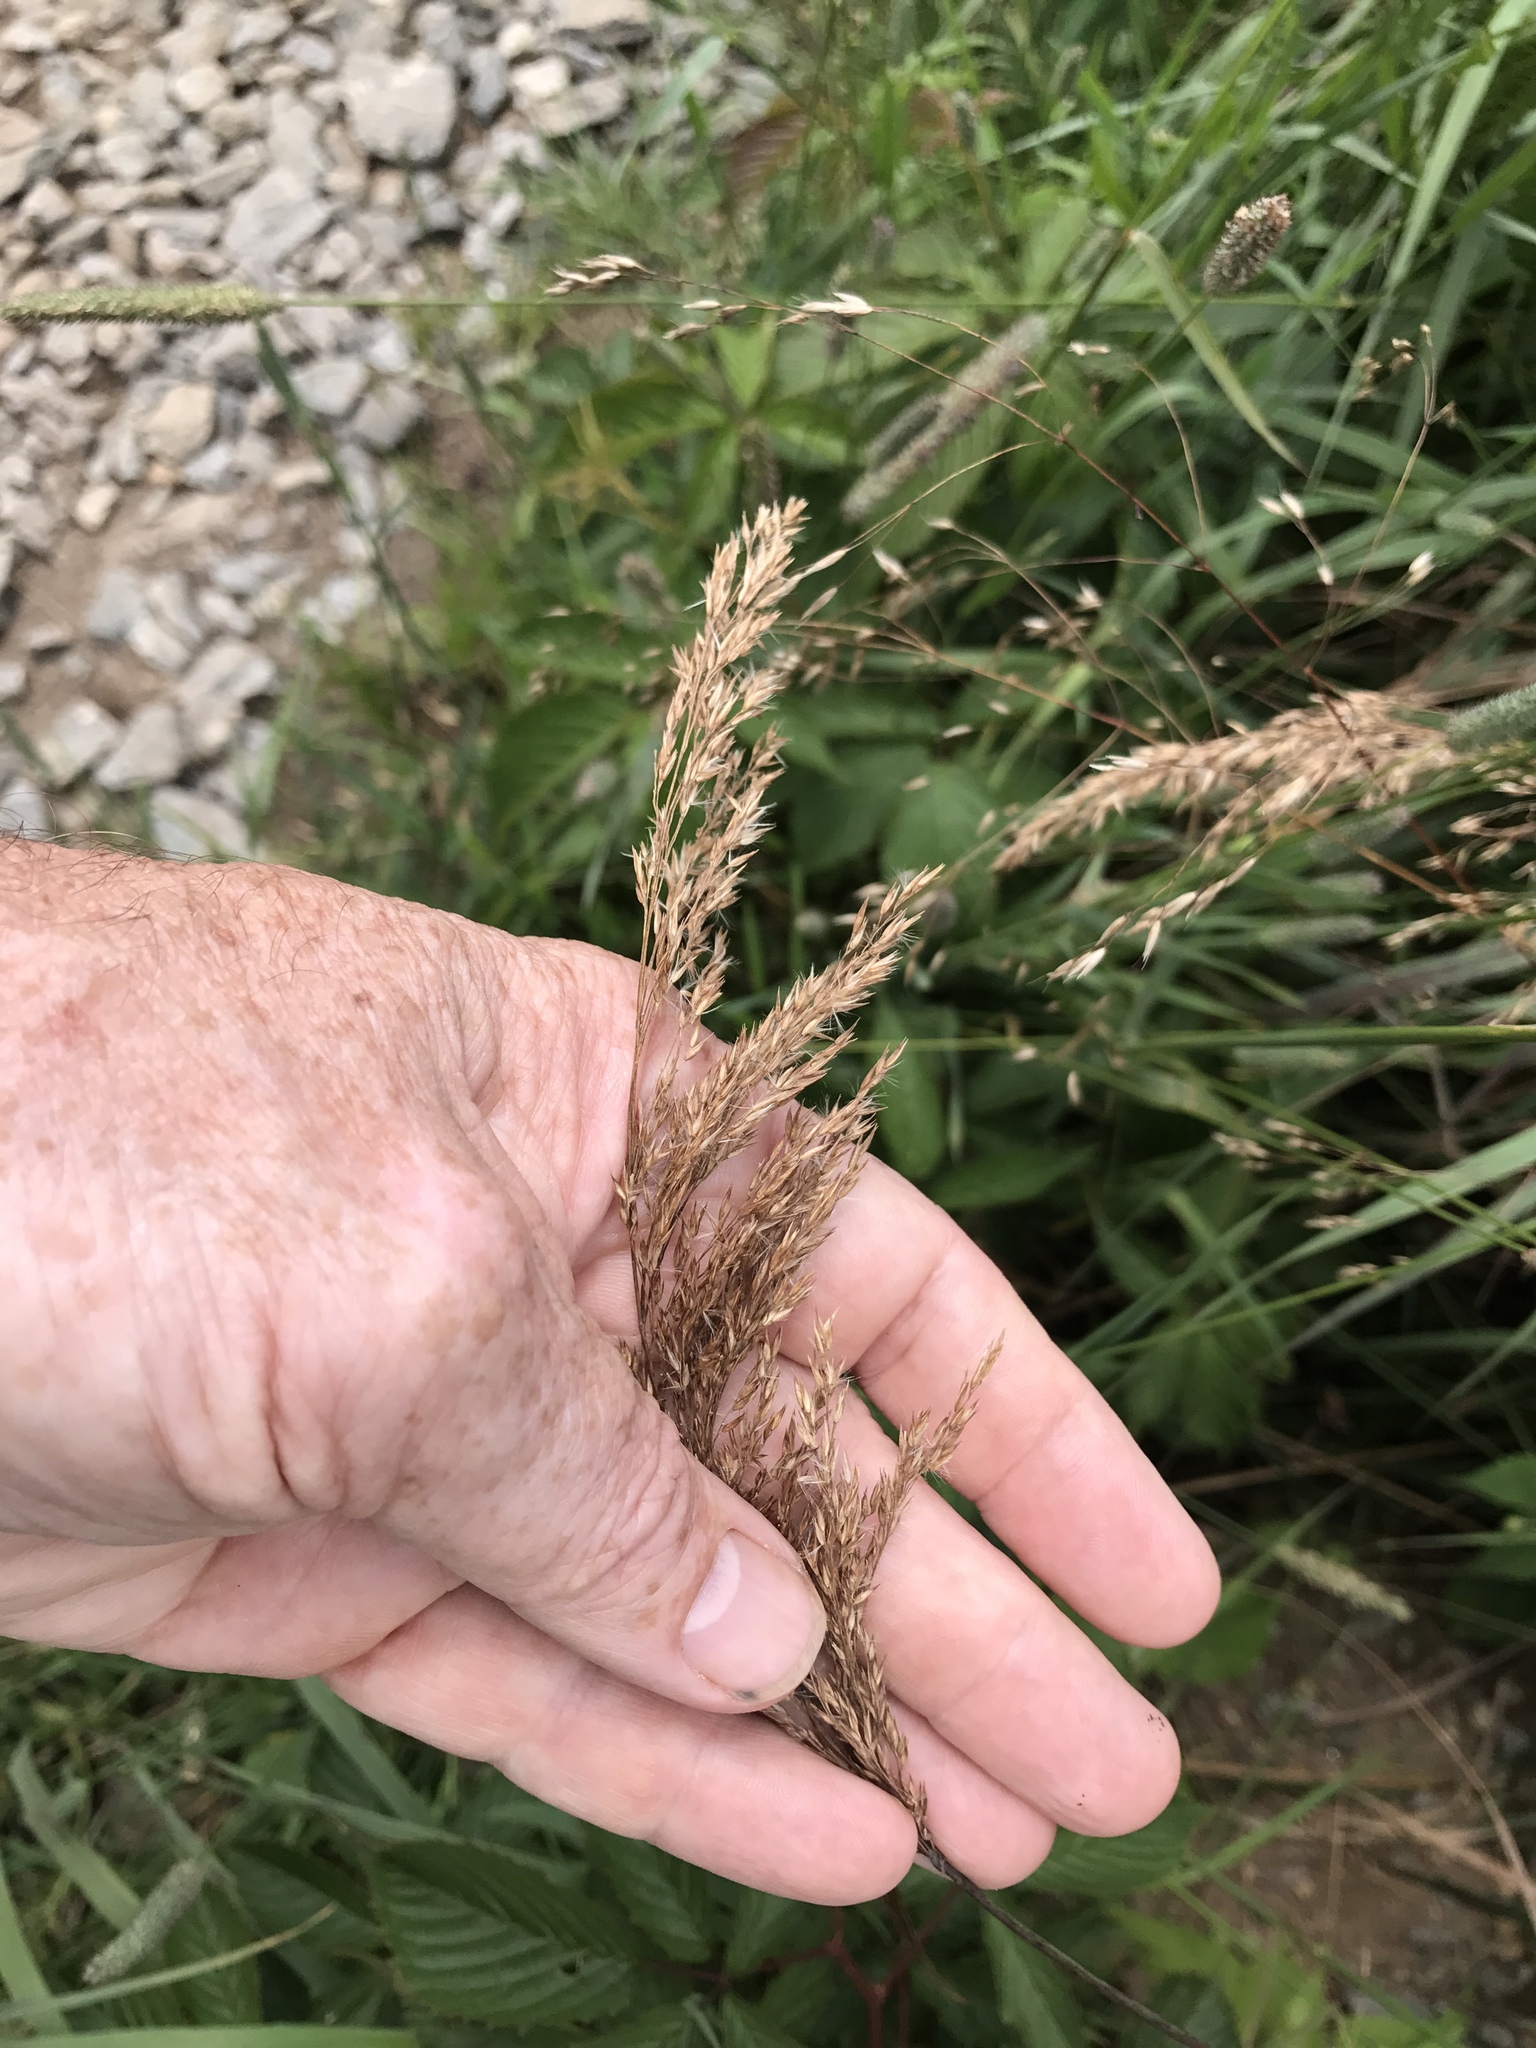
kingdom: Plantae
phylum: Tracheophyta
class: Liliopsida
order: Poales
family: Poaceae
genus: Calamagrostis
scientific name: Calamagrostis canadensis
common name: Canada bluejoint
